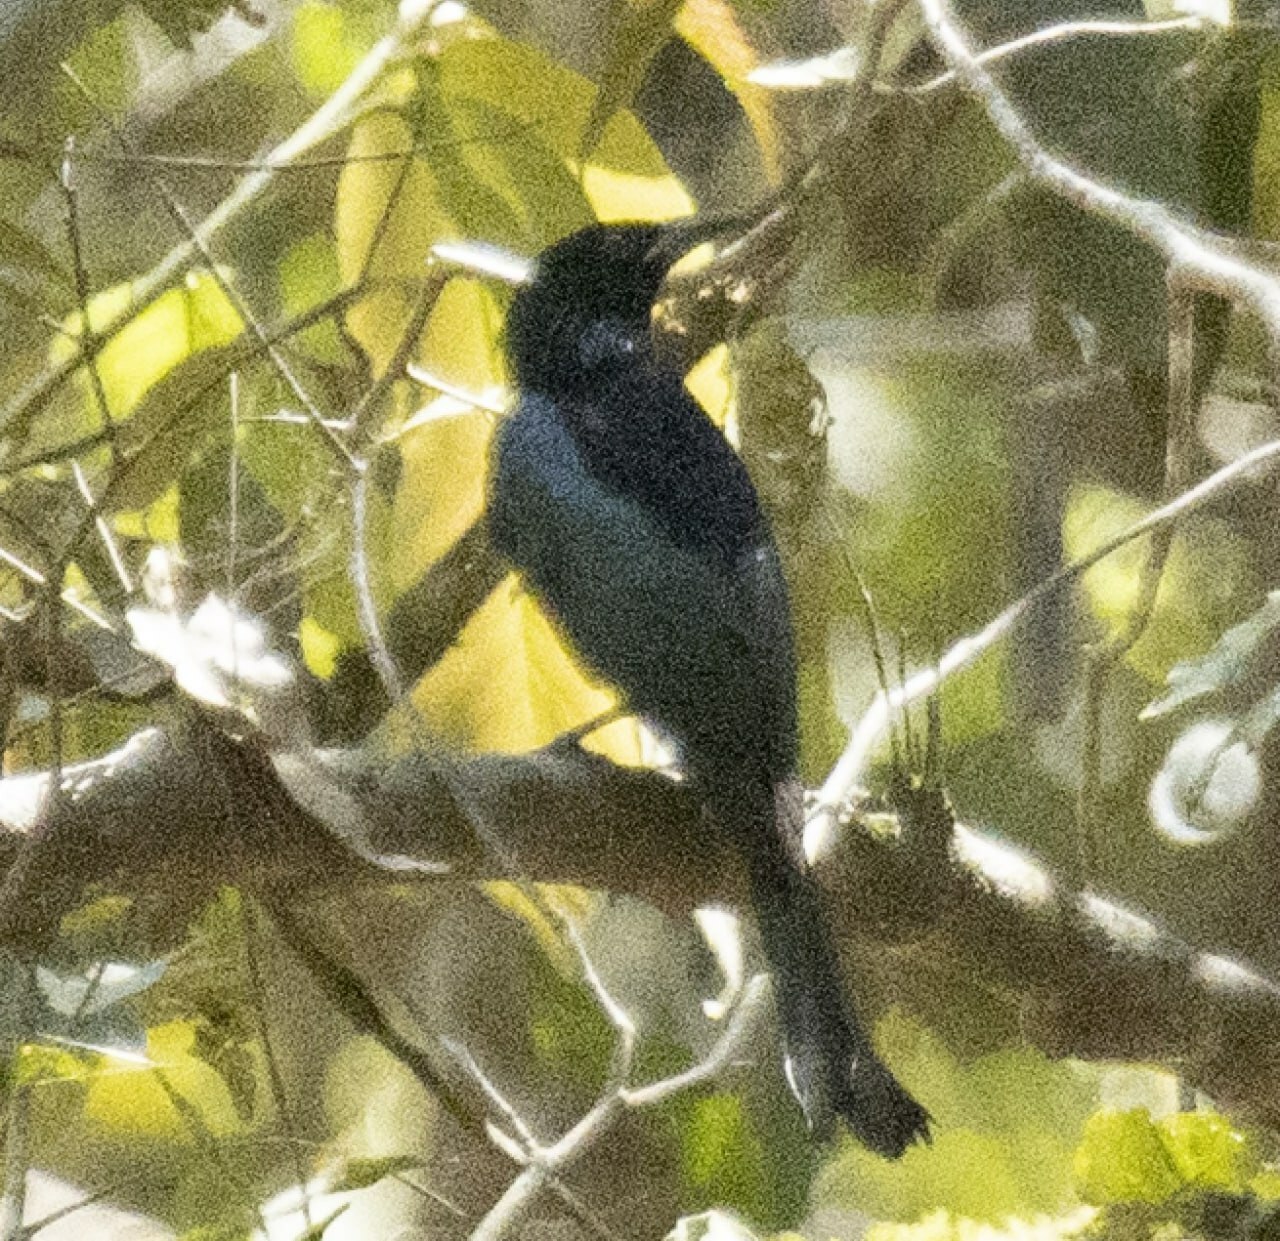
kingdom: Animalia
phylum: Chordata
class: Aves
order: Passeriformes
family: Dicruridae
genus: Dicrurus
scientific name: Dicrurus hottentottus
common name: Hair-crested drongo
